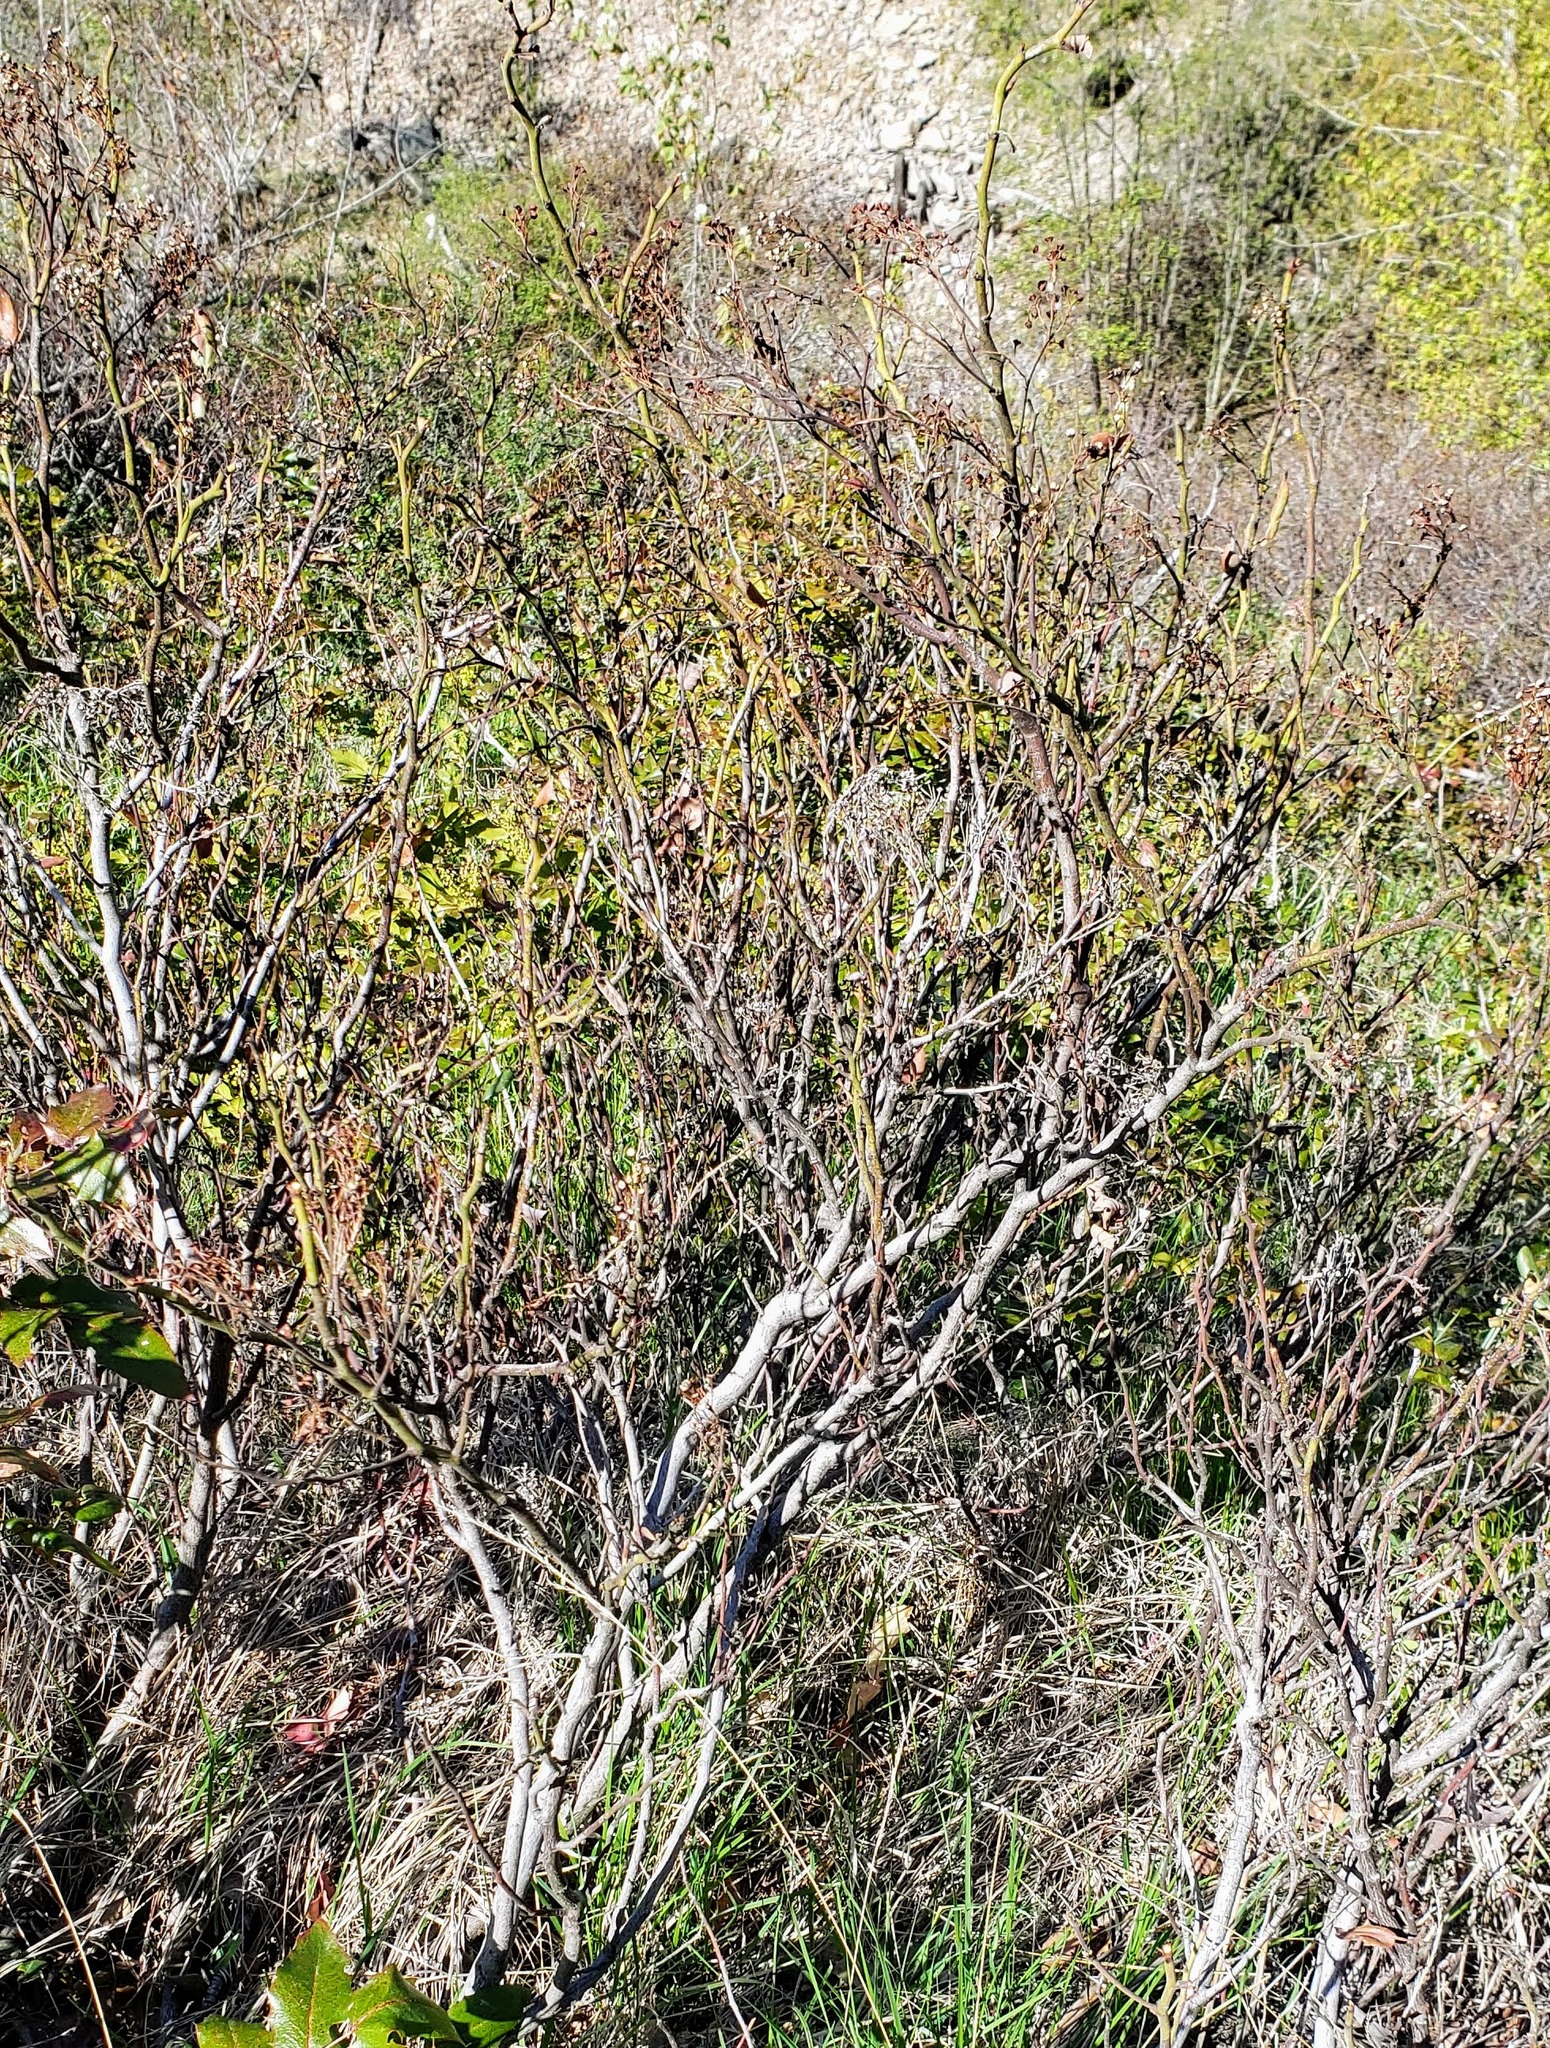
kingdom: Plantae
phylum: Tracheophyta
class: Magnoliopsida
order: Rosales
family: Rhamnaceae
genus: Ceanothus
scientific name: Ceanothus sanguineus
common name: Teatree
